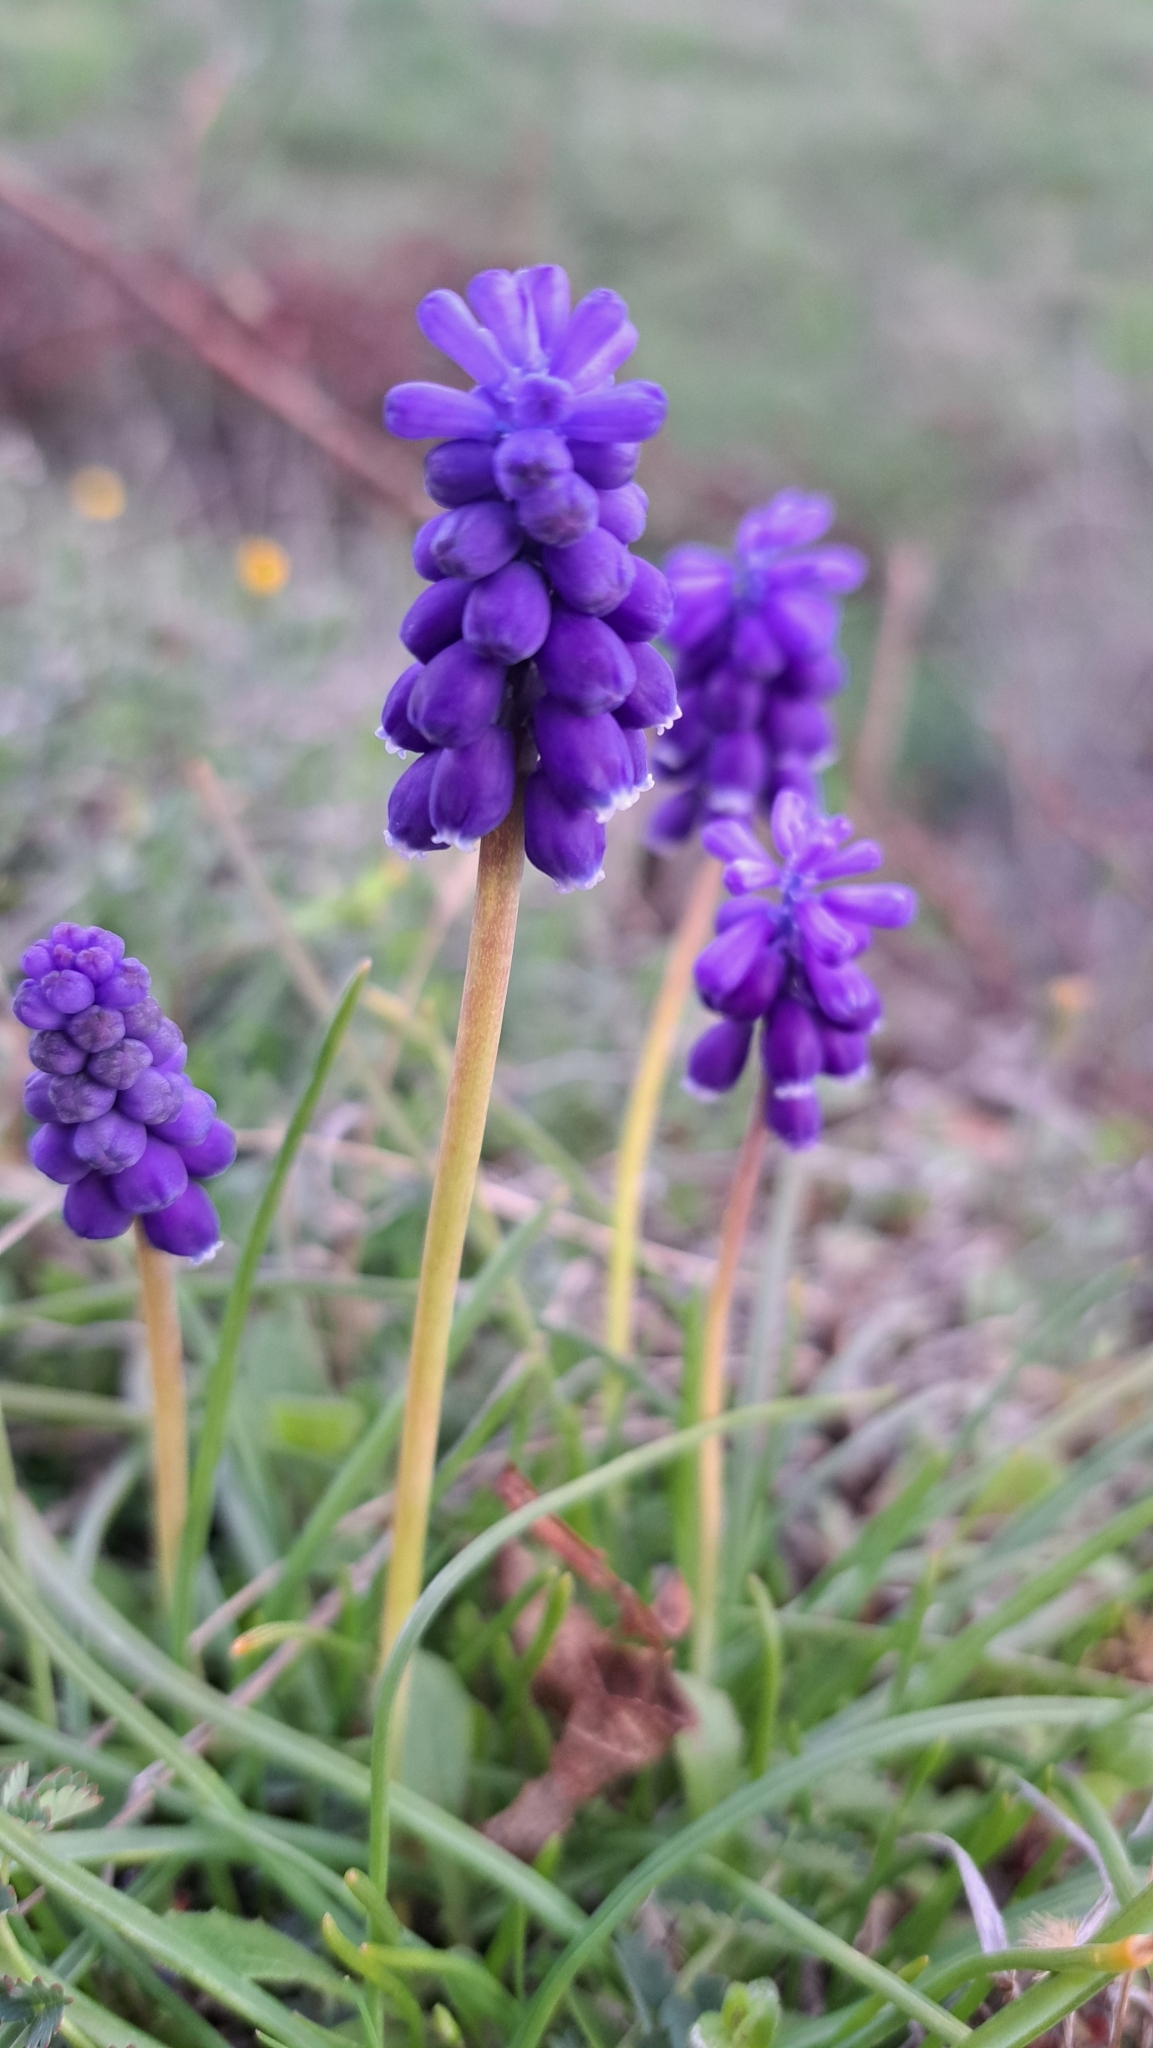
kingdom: Plantae
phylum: Tracheophyta
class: Liliopsida
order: Asparagales
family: Asparagaceae
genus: Muscari
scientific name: Muscari neglectum
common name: Grape-hyacinth
